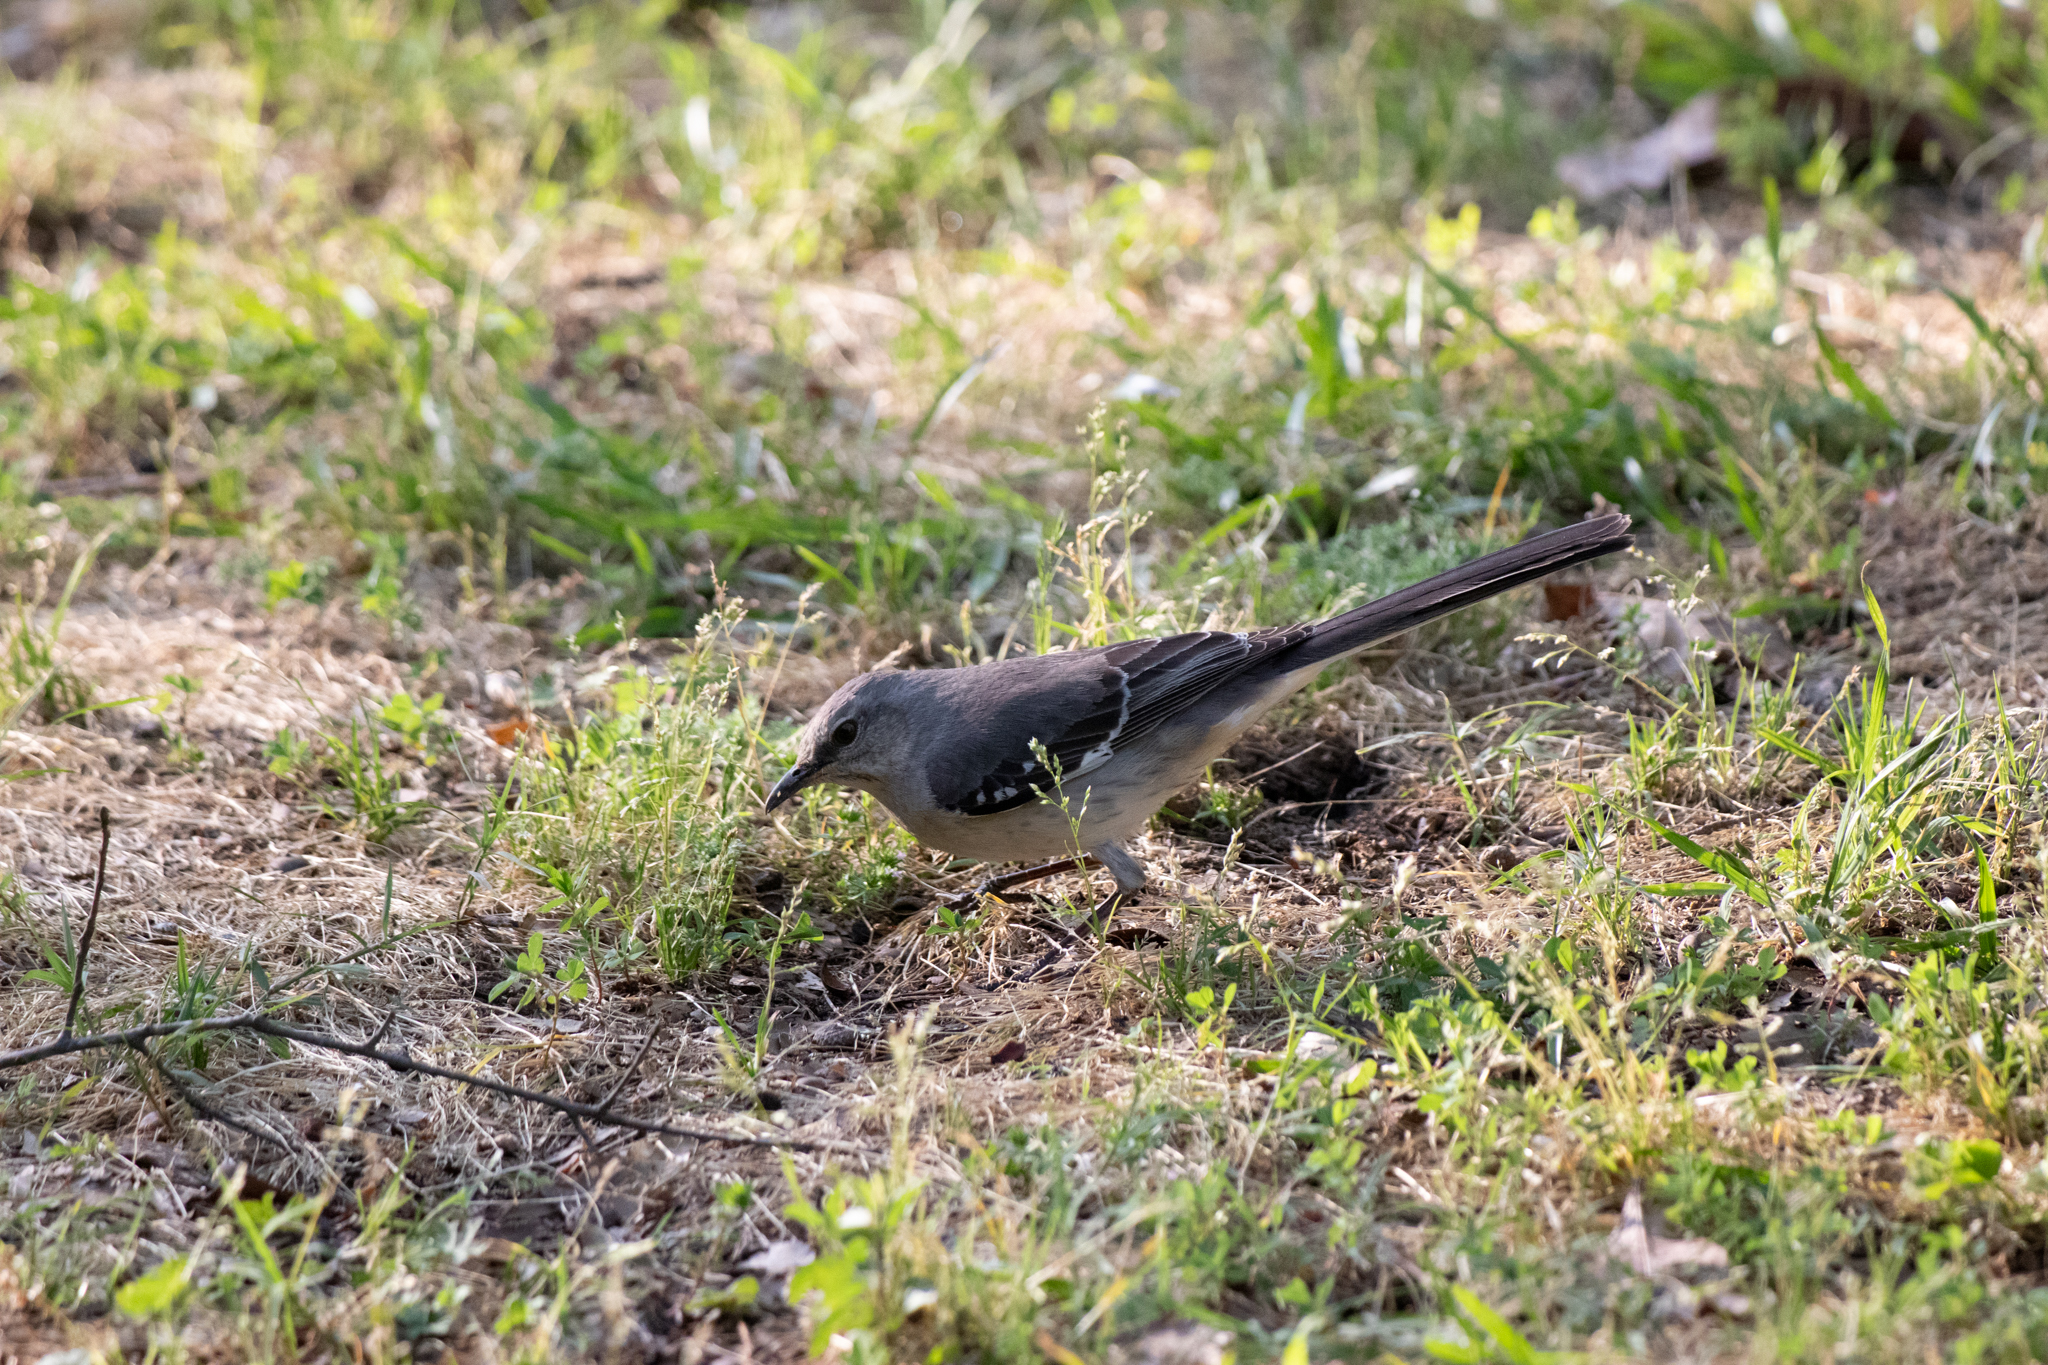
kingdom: Animalia
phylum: Chordata
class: Aves
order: Passeriformes
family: Mimidae
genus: Mimus
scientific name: Mimus polyglottos
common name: Northern mockingbird
